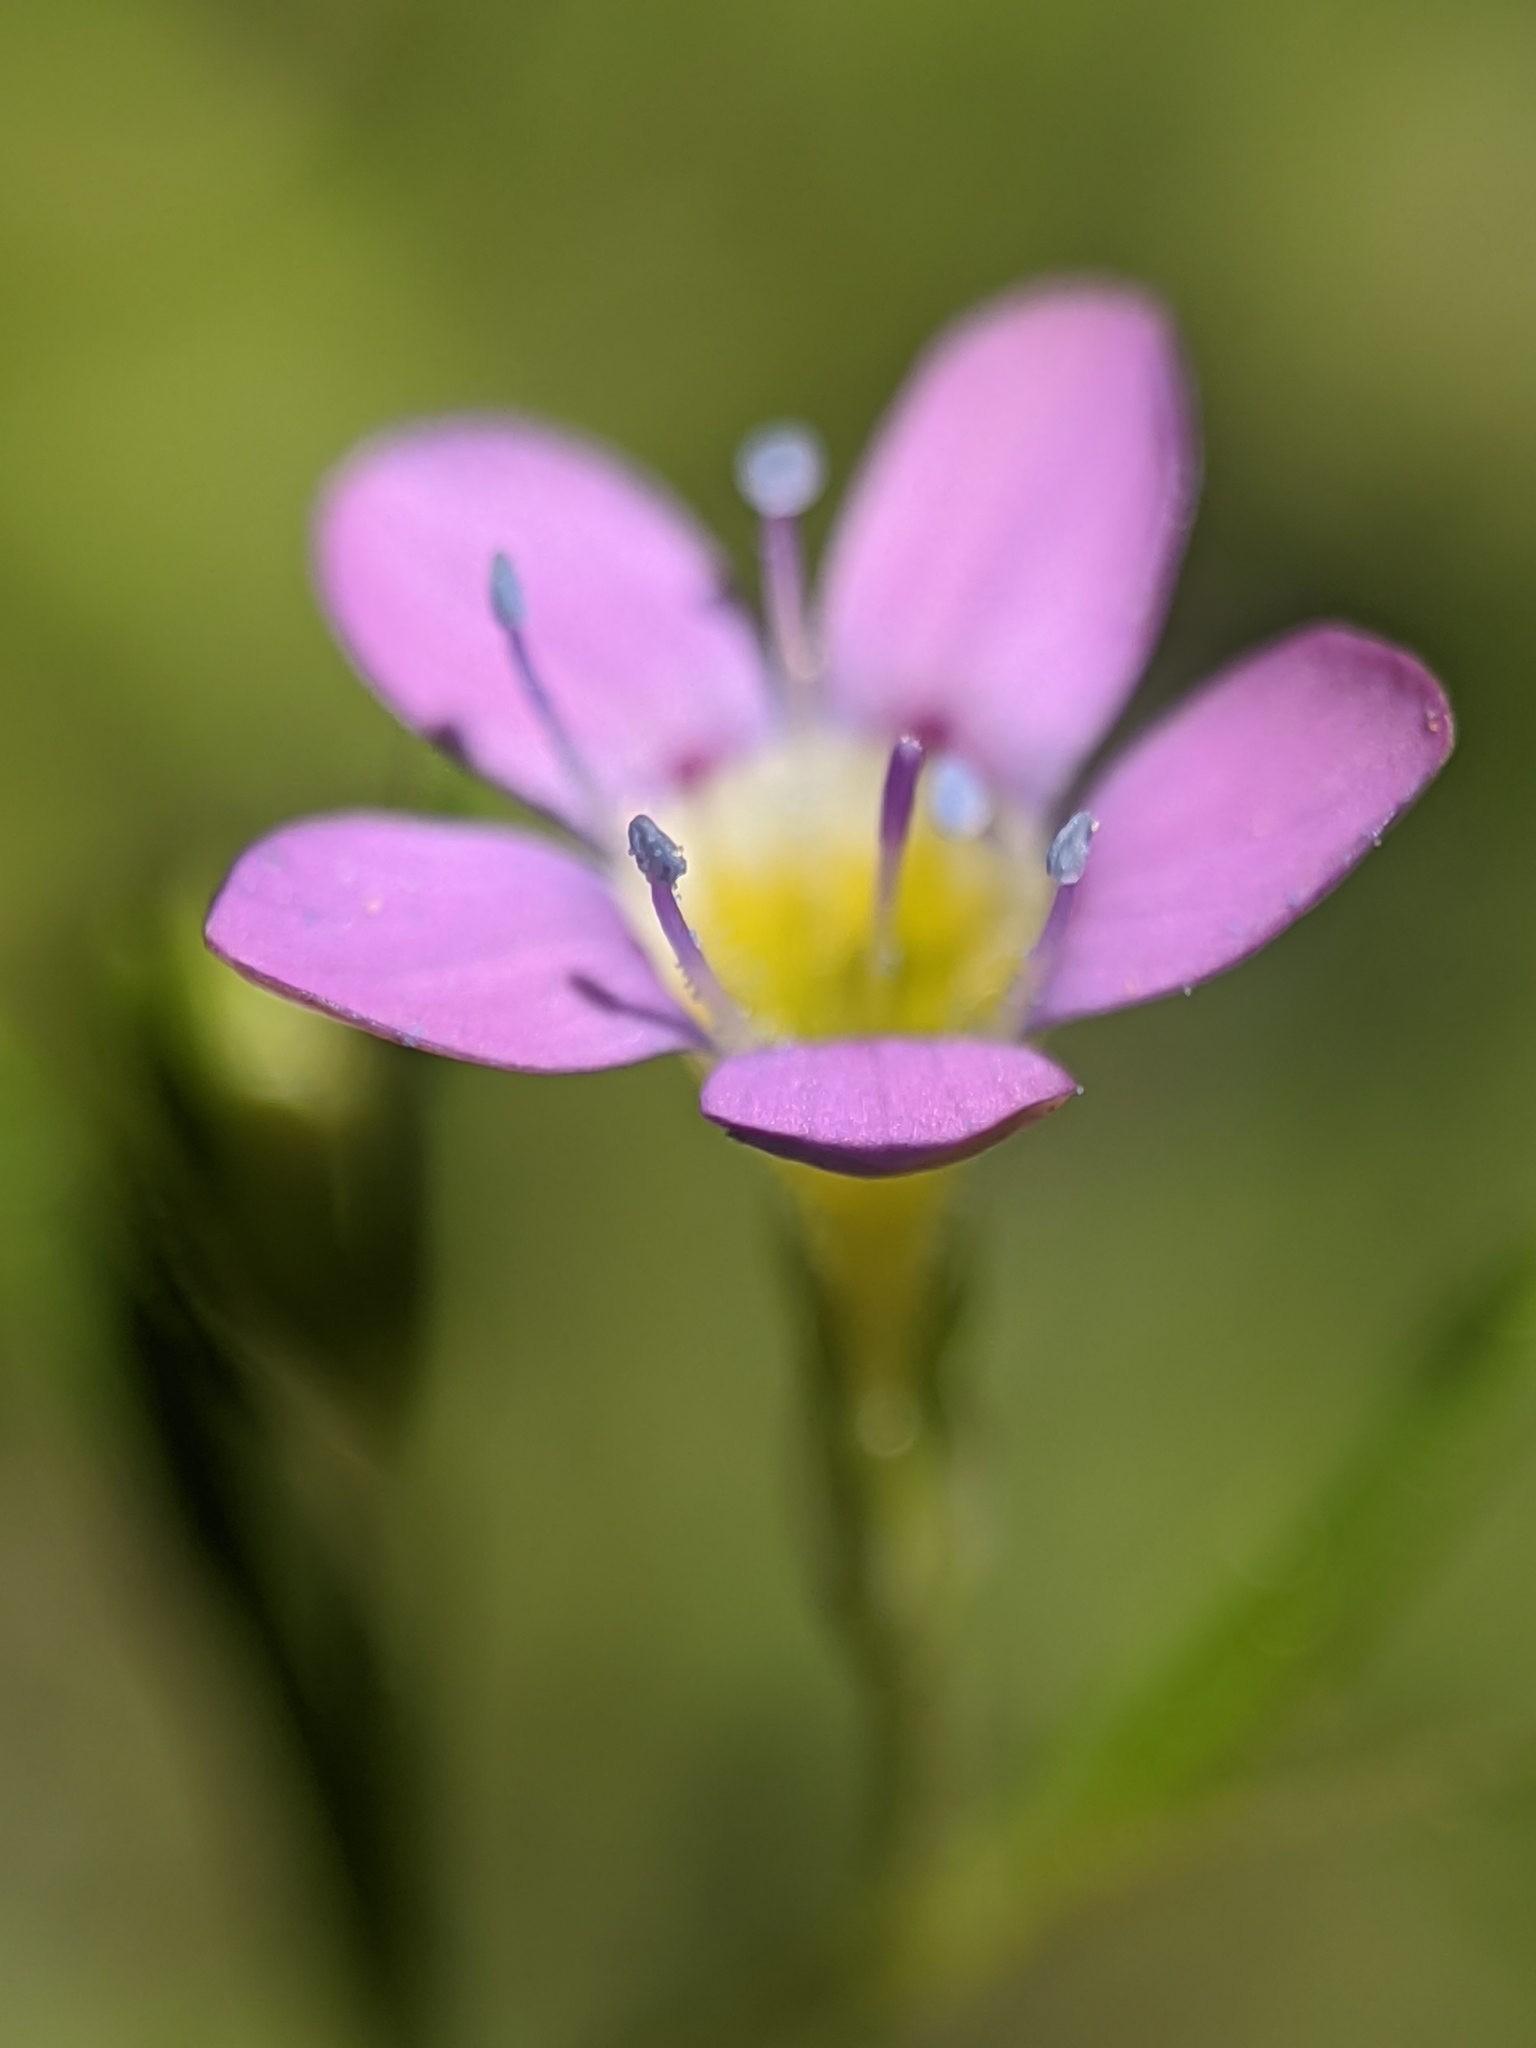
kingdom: Plantae
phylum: Tracheophyta
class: Magnoliopsida
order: Ericales
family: Polemoniaceae
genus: Navarretia
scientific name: Navarretia leptalea
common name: Bridges' pincushionplant
